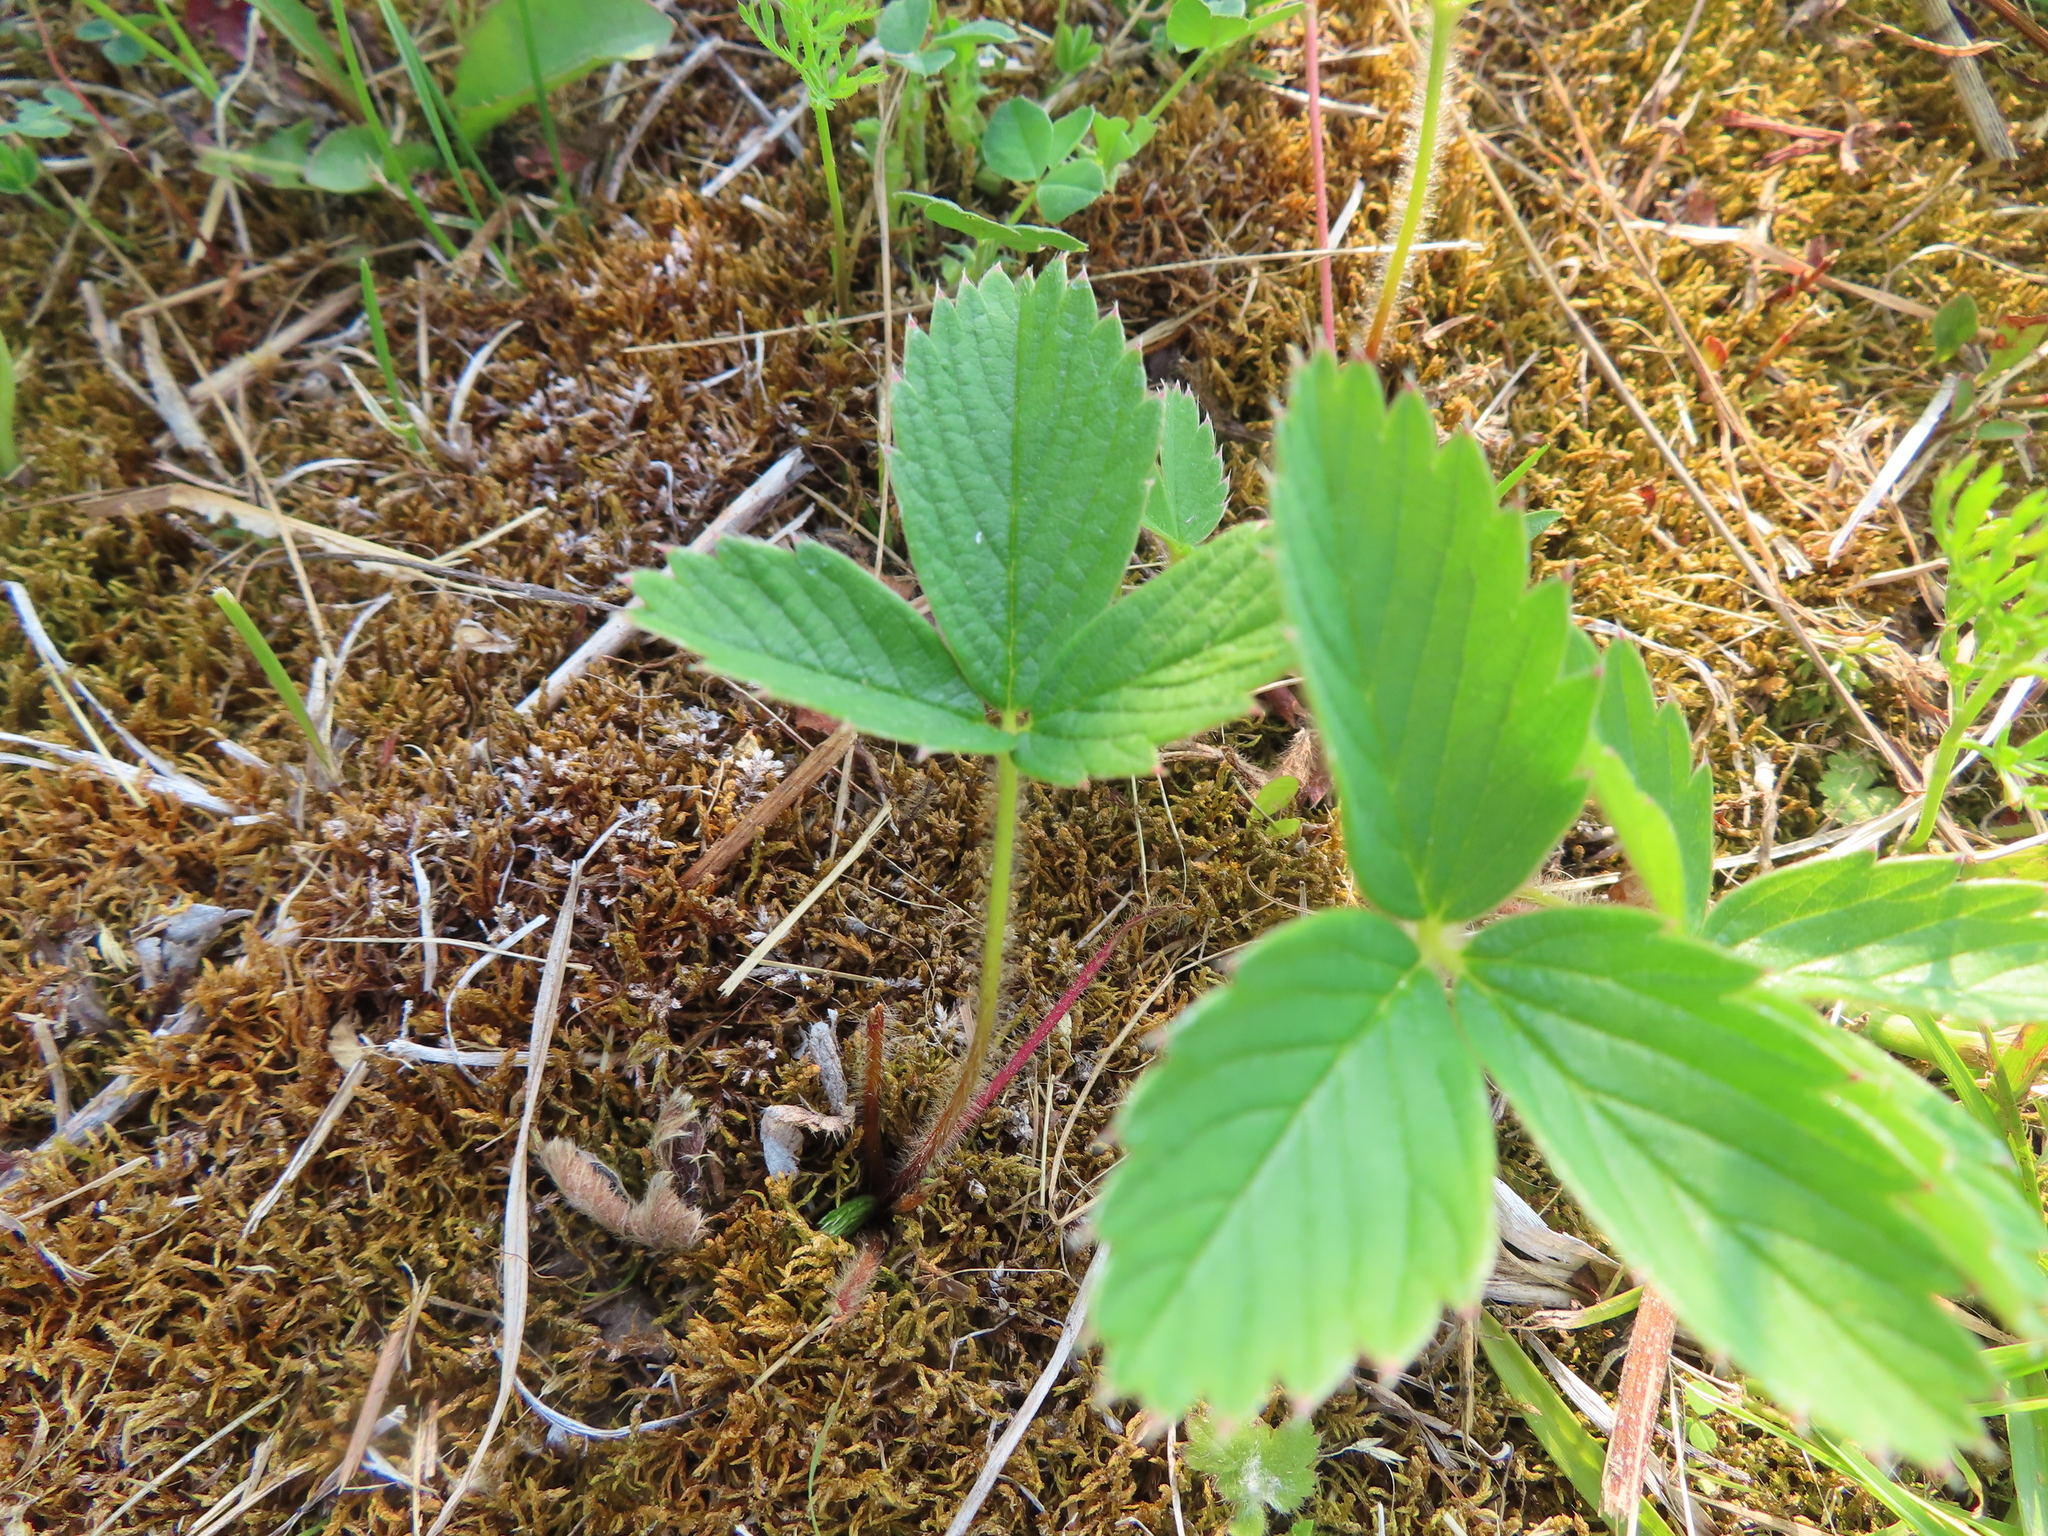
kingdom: Plantae
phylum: Tracheophyta
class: Magnoliopsida
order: Rosales
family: Rosaceae
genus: Fragaria
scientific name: Fragaria virginiana
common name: Thickleaved wild strawberry
